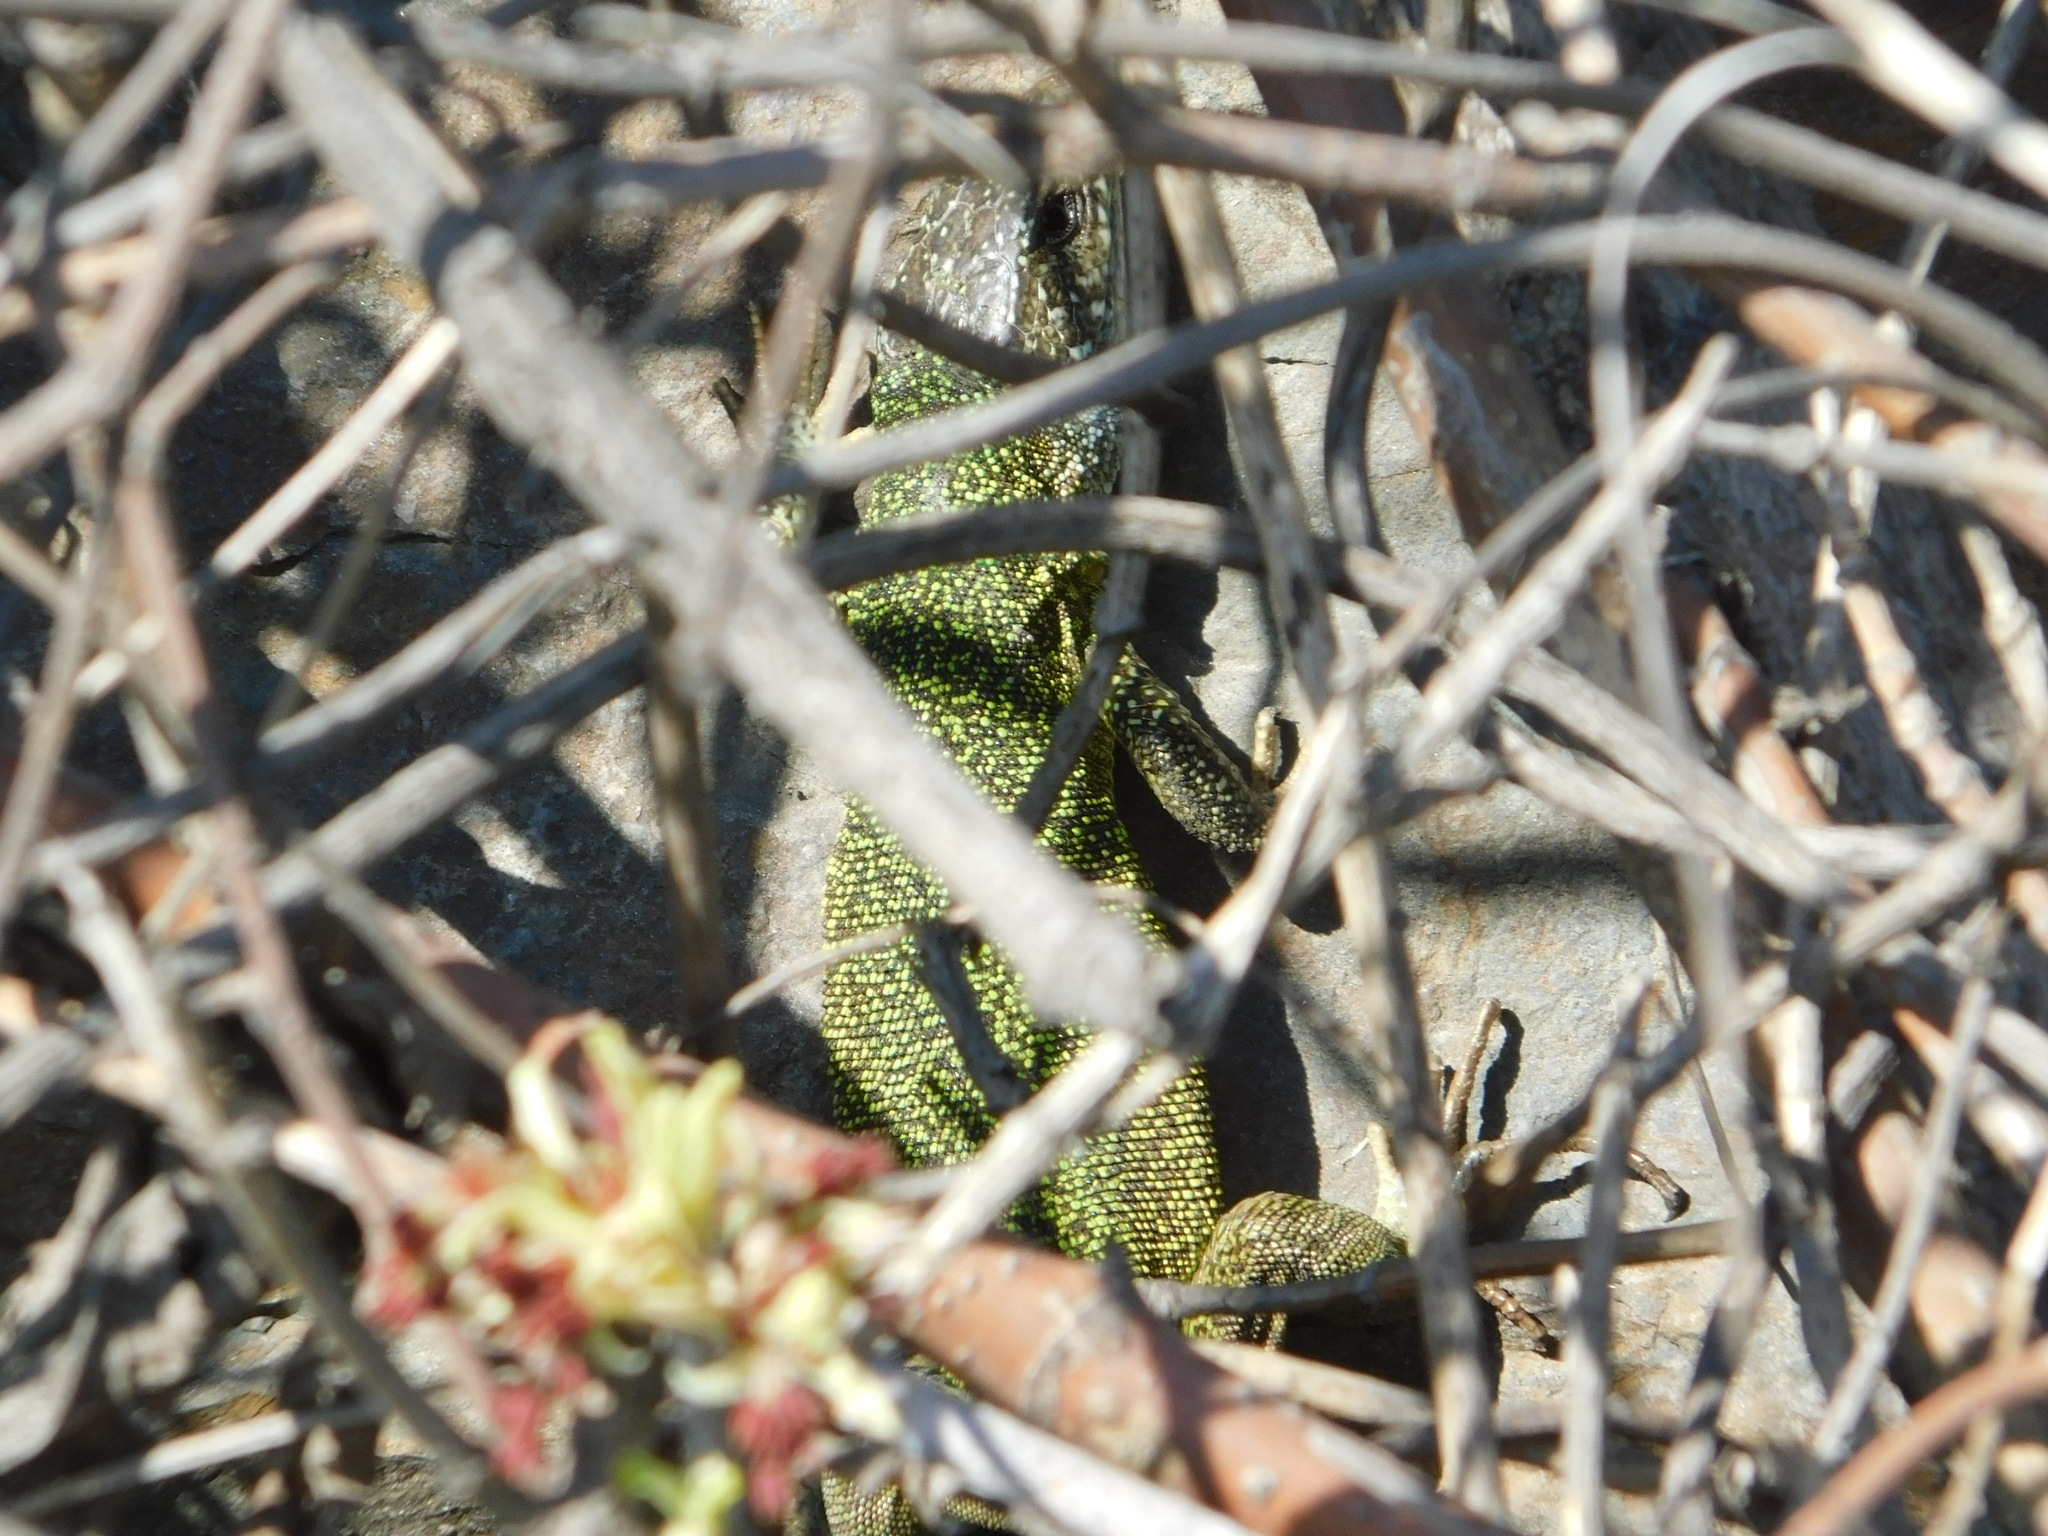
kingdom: Animalia
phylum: Chordata
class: Squamata
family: Lacertidae
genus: Lacerta
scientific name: Lacerta viridis
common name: European green lizard
